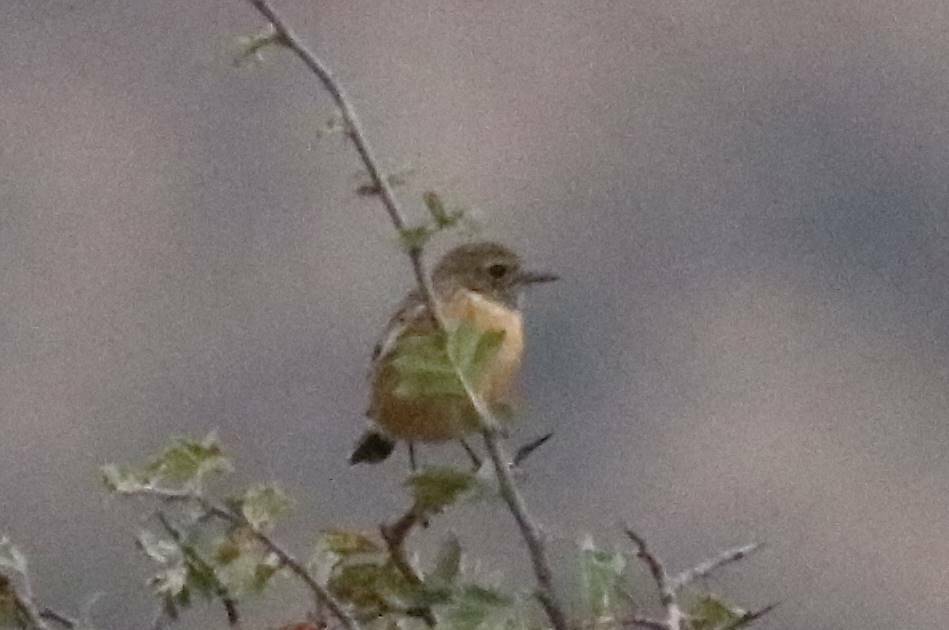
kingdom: Animalia
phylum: Chordata
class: Aves
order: Passeriformes
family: Muscicapidae
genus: Saxicola
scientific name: Saxicola rubicola
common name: European stonechat
